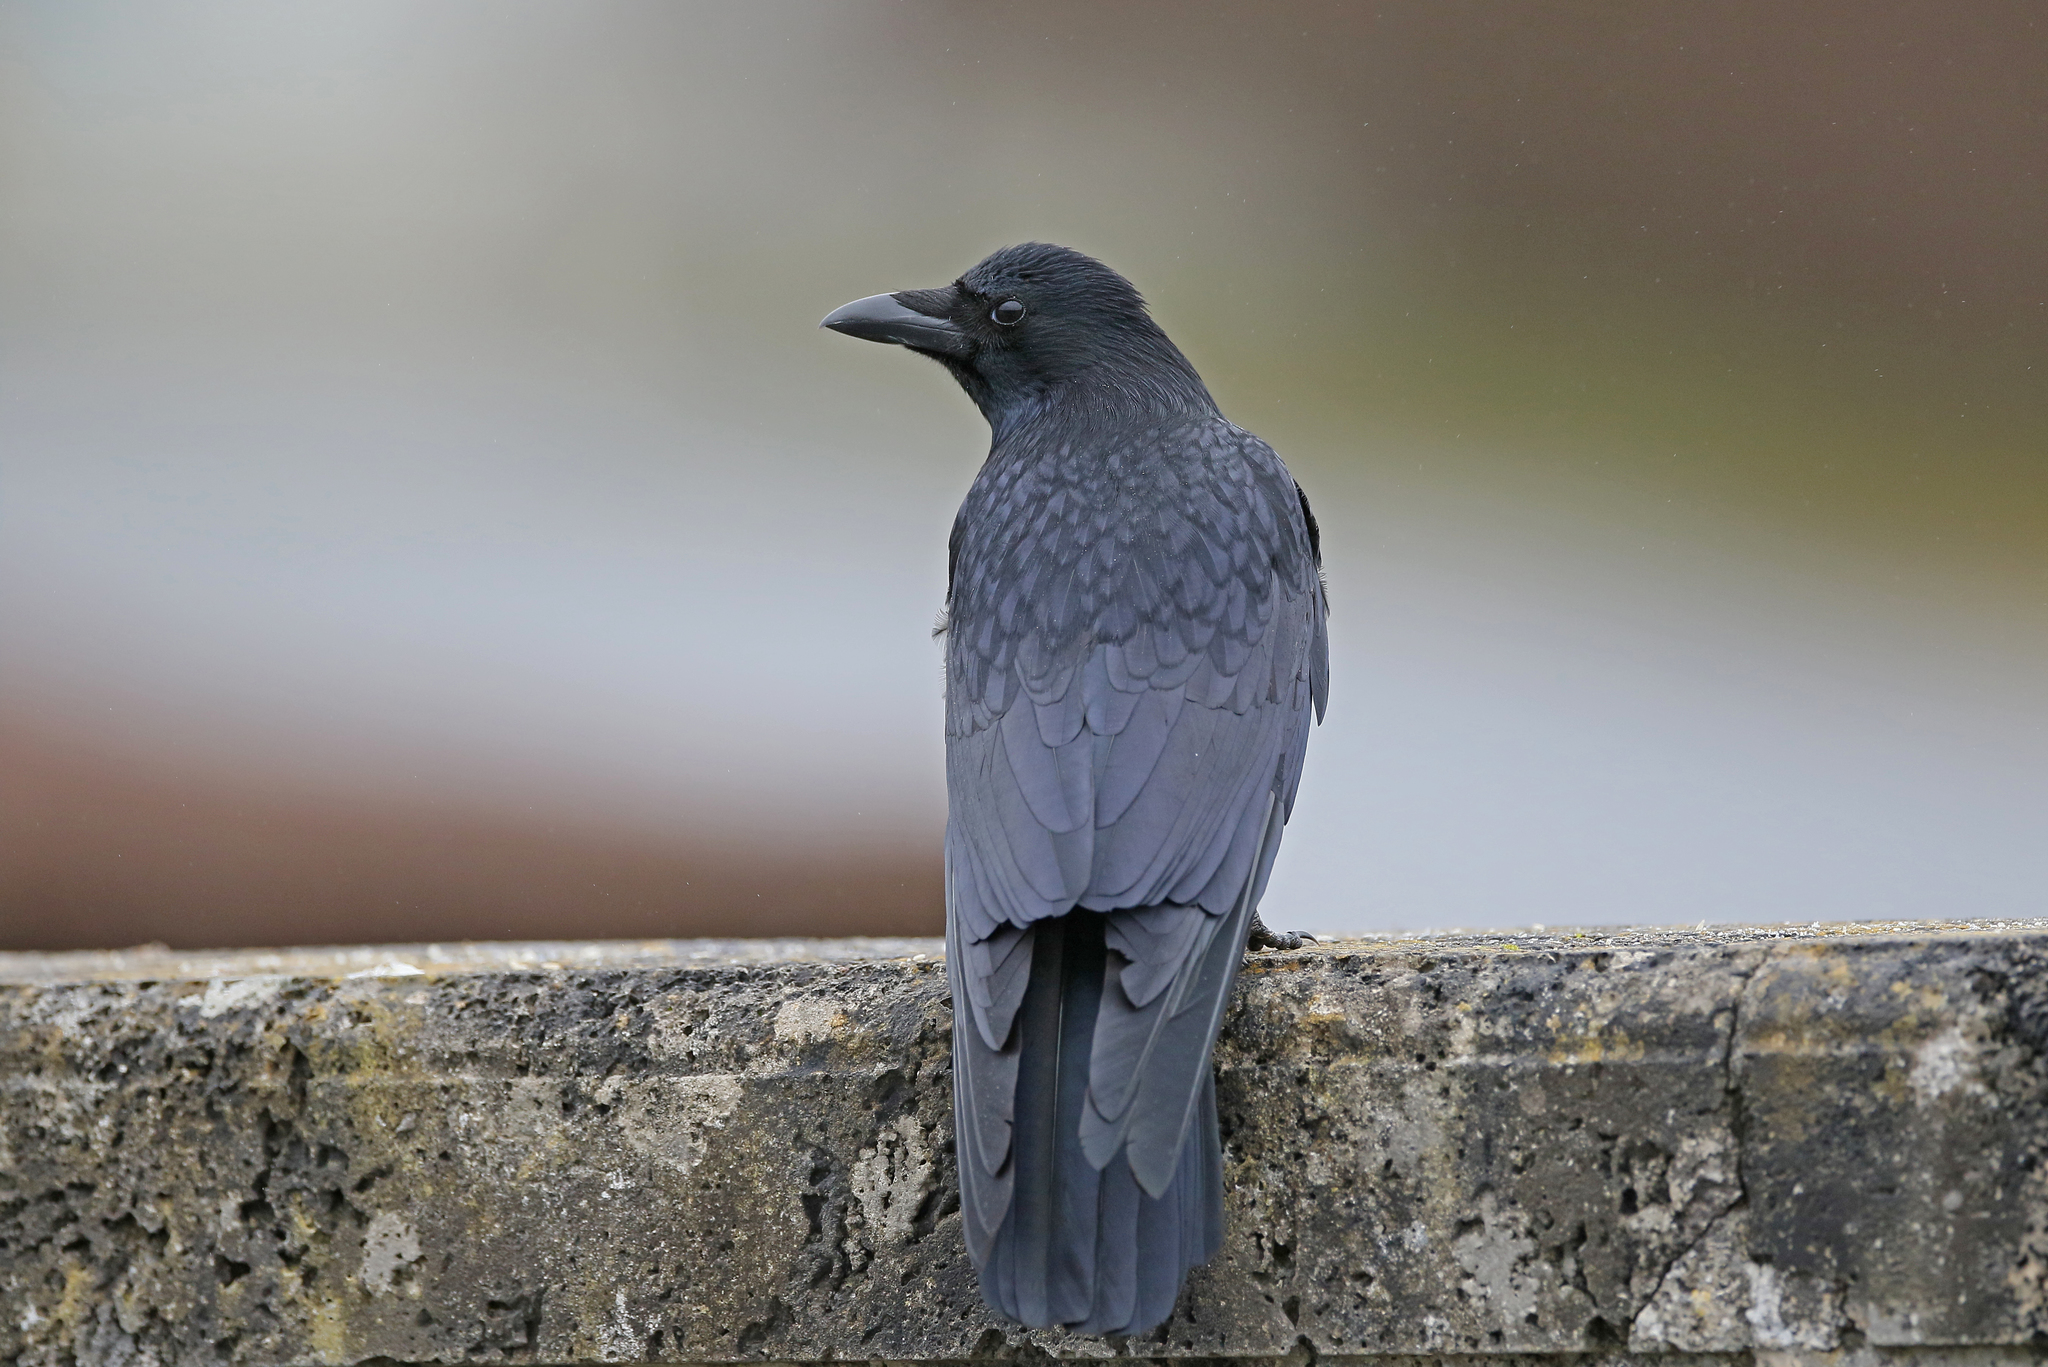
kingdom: Animalia
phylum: Chordata
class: Aves
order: Passeriformes
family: Corvidae
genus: Corvus
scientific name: Corvus corone
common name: Carrion crow
